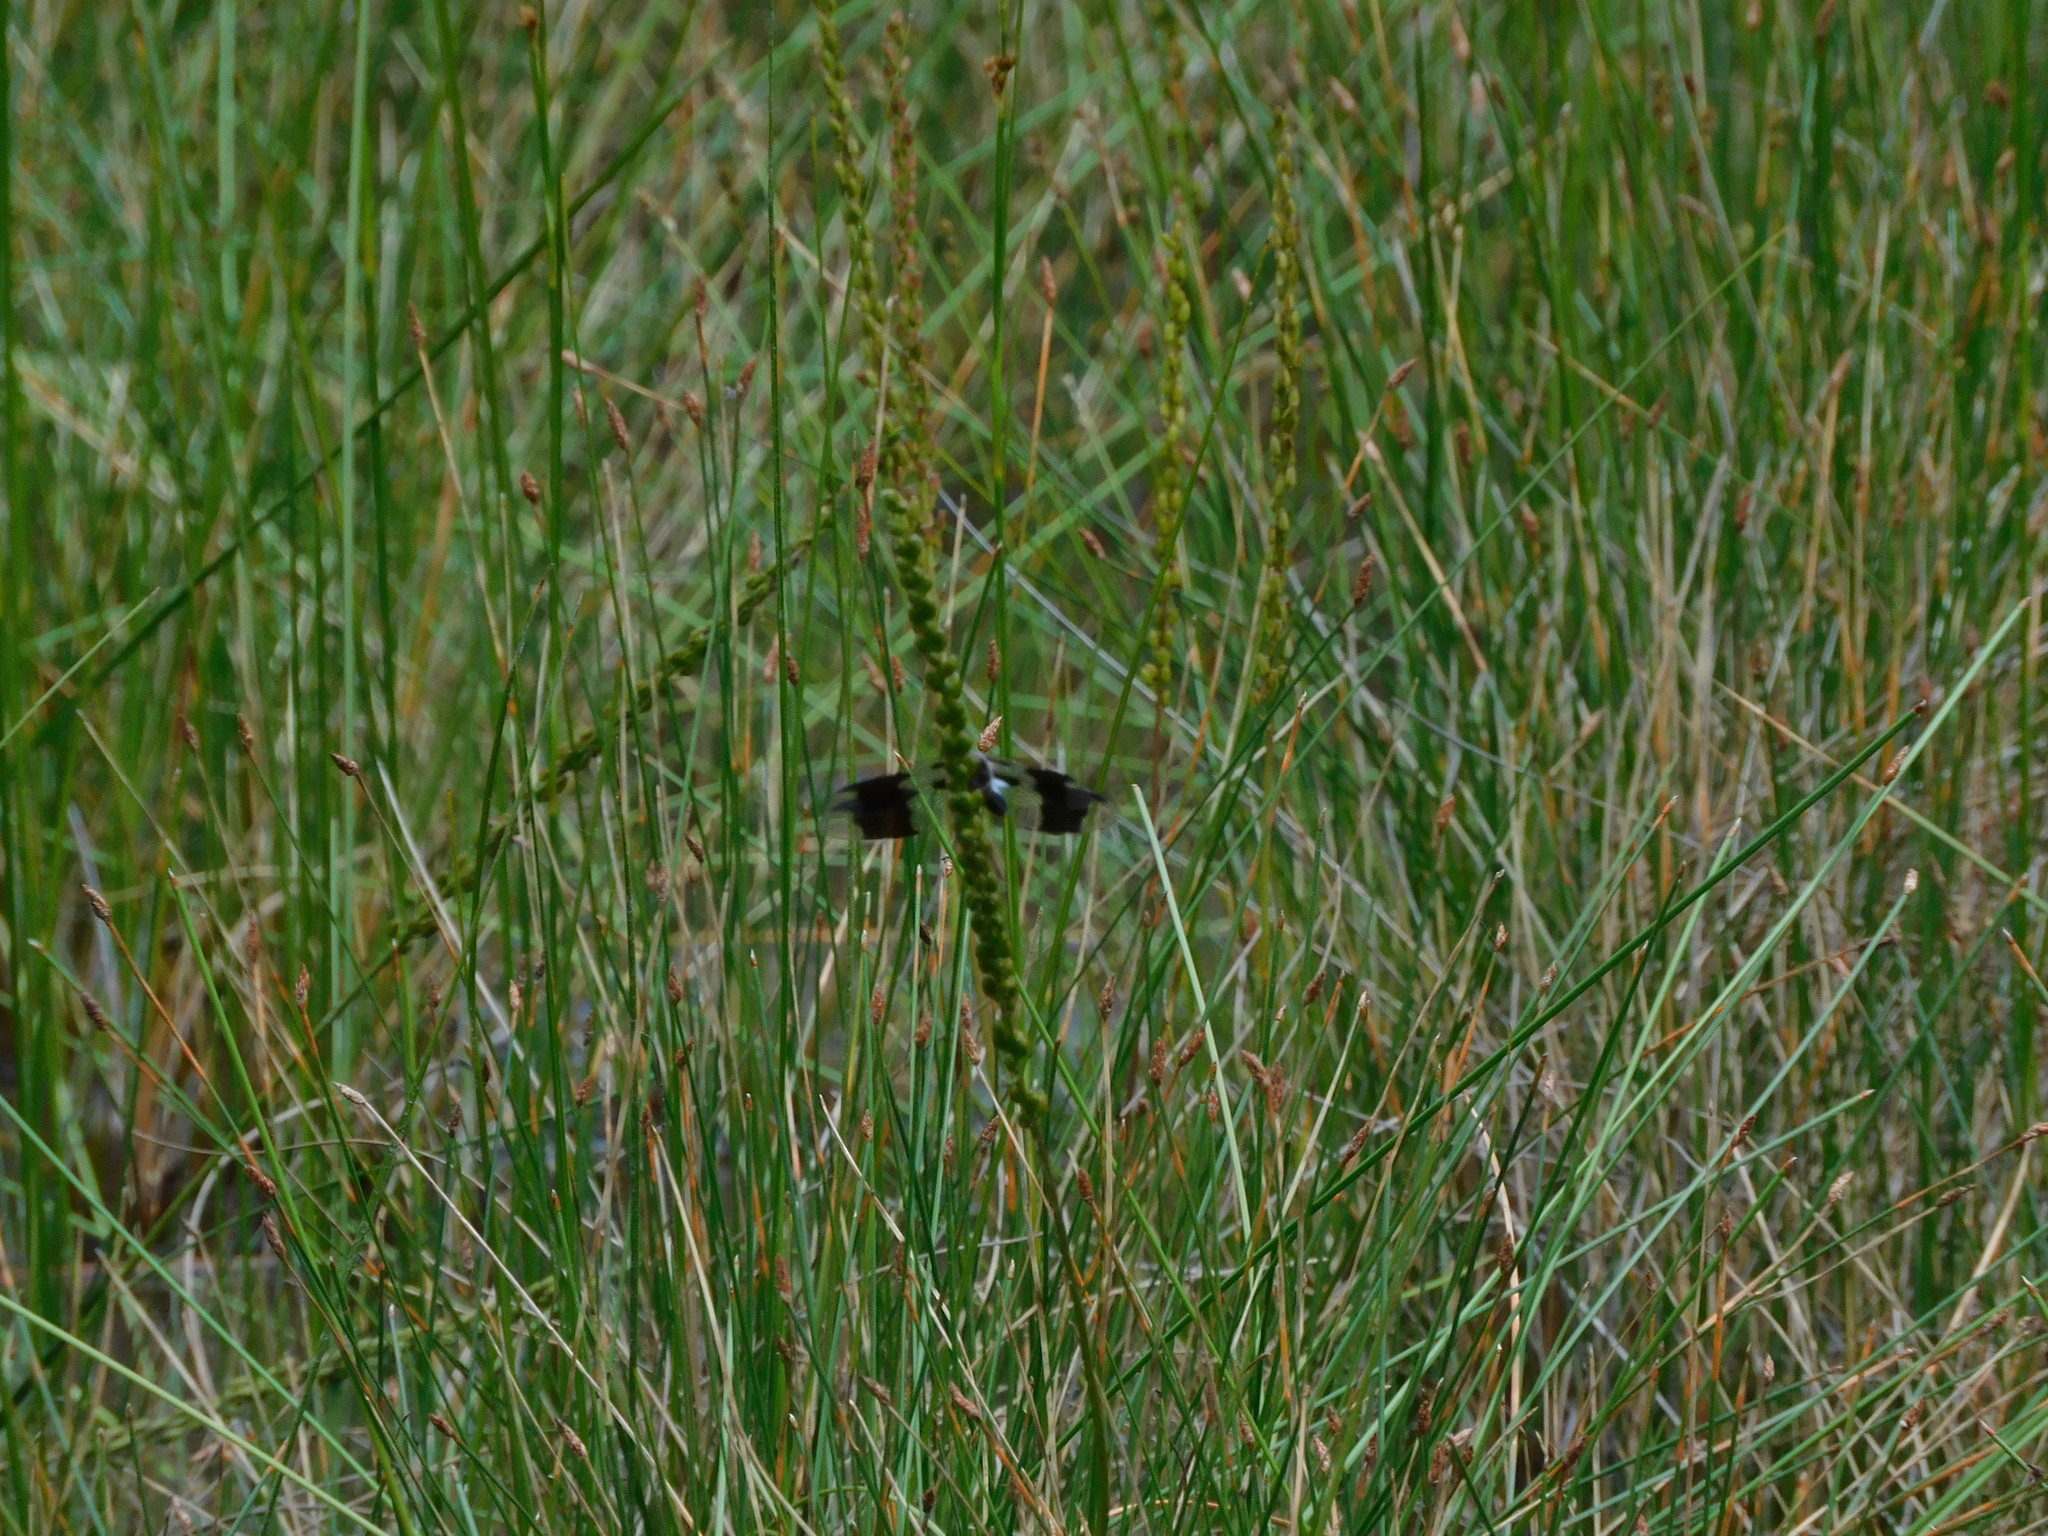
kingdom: Animalia
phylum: Arthropoda
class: Insecta
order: Odonata
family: Libellulidae
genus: Plathemis
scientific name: Plathemis lydia
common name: Common whitetail
